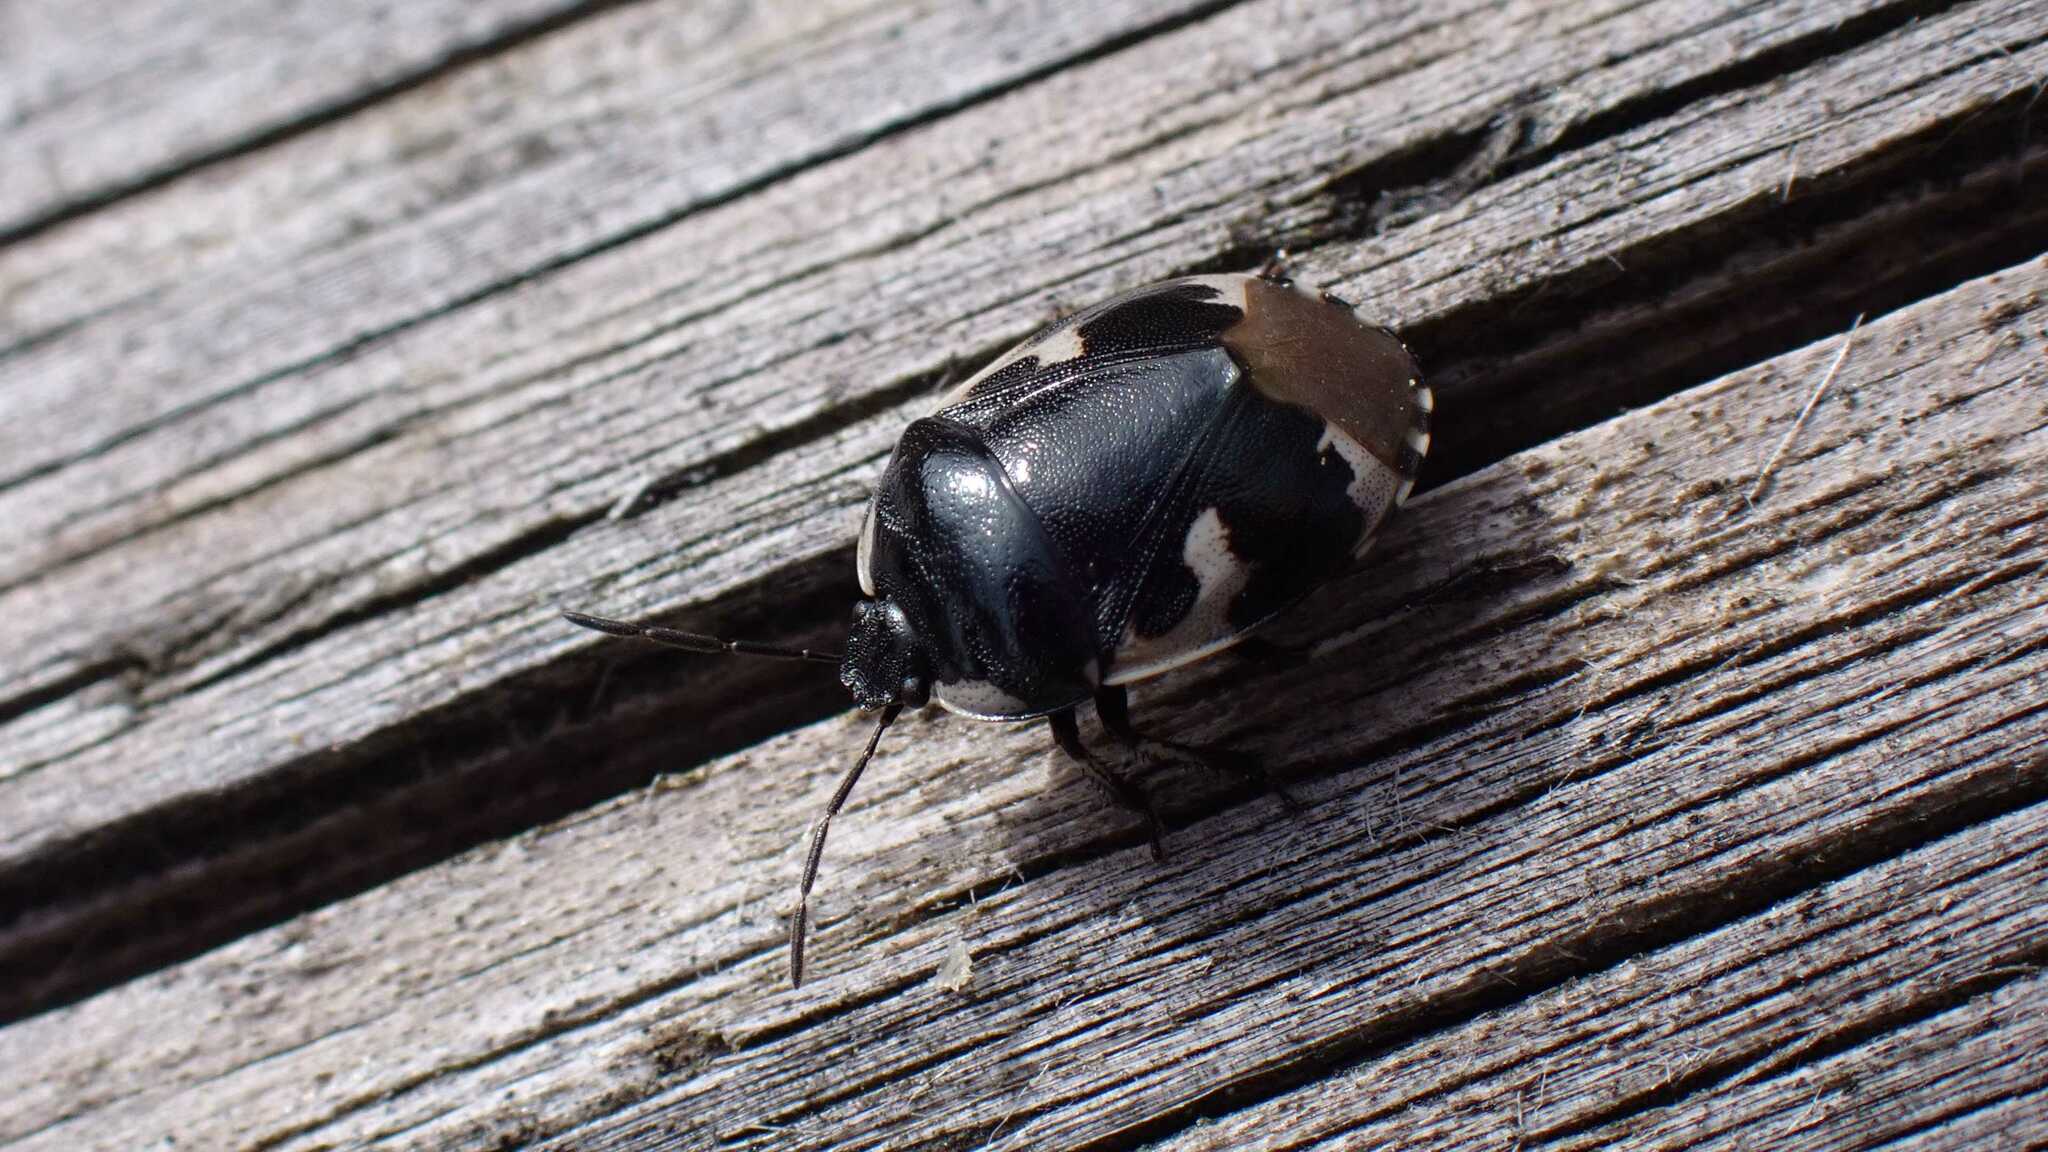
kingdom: Animalia
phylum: Arthropoda
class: Insecta
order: Hemiptera
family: Cydnidae
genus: Tritomegas
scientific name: Tritomegas bicolor
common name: Pied shieldbug
